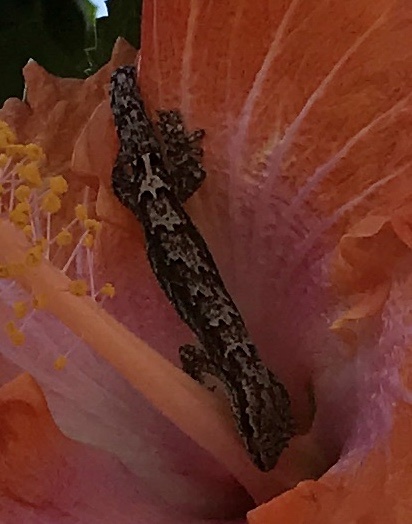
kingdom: Animalia
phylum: Chordata
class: Squamata
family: Gekkonidae
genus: Lepidodactylus
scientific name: Lepidodactylus lugubris
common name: Mourning gecko
